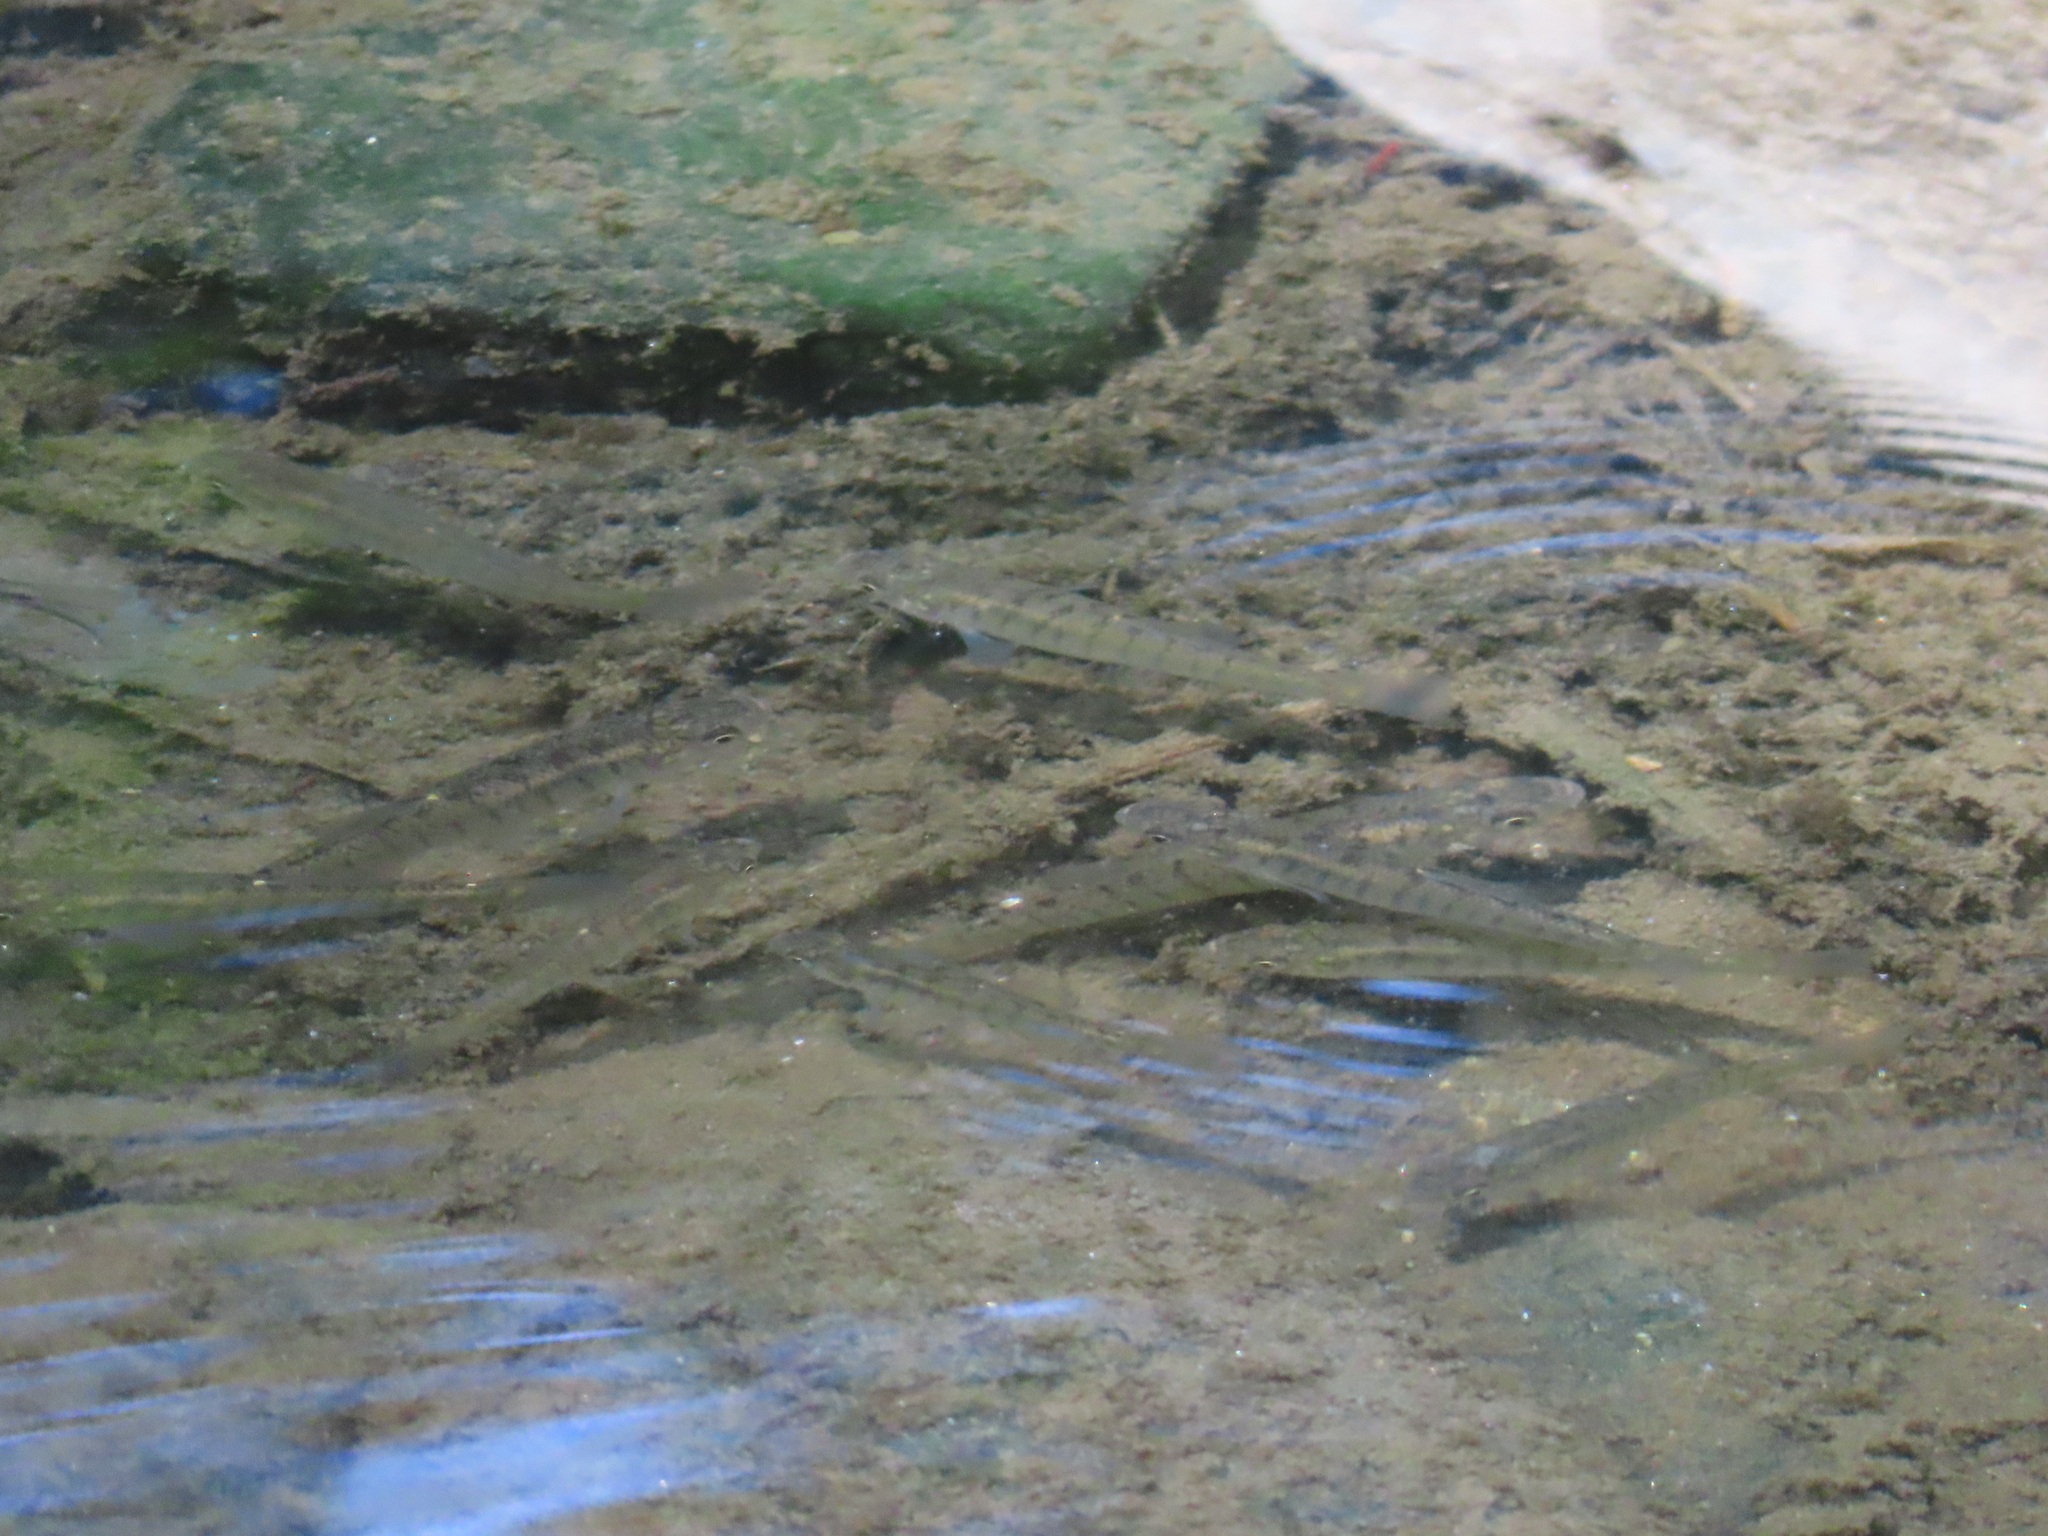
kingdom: Animalia
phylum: Chordata
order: Cyprinodontiformes
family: Fundulidae
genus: Fundulus
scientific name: Fundulus diaphanus
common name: Banded killifish
